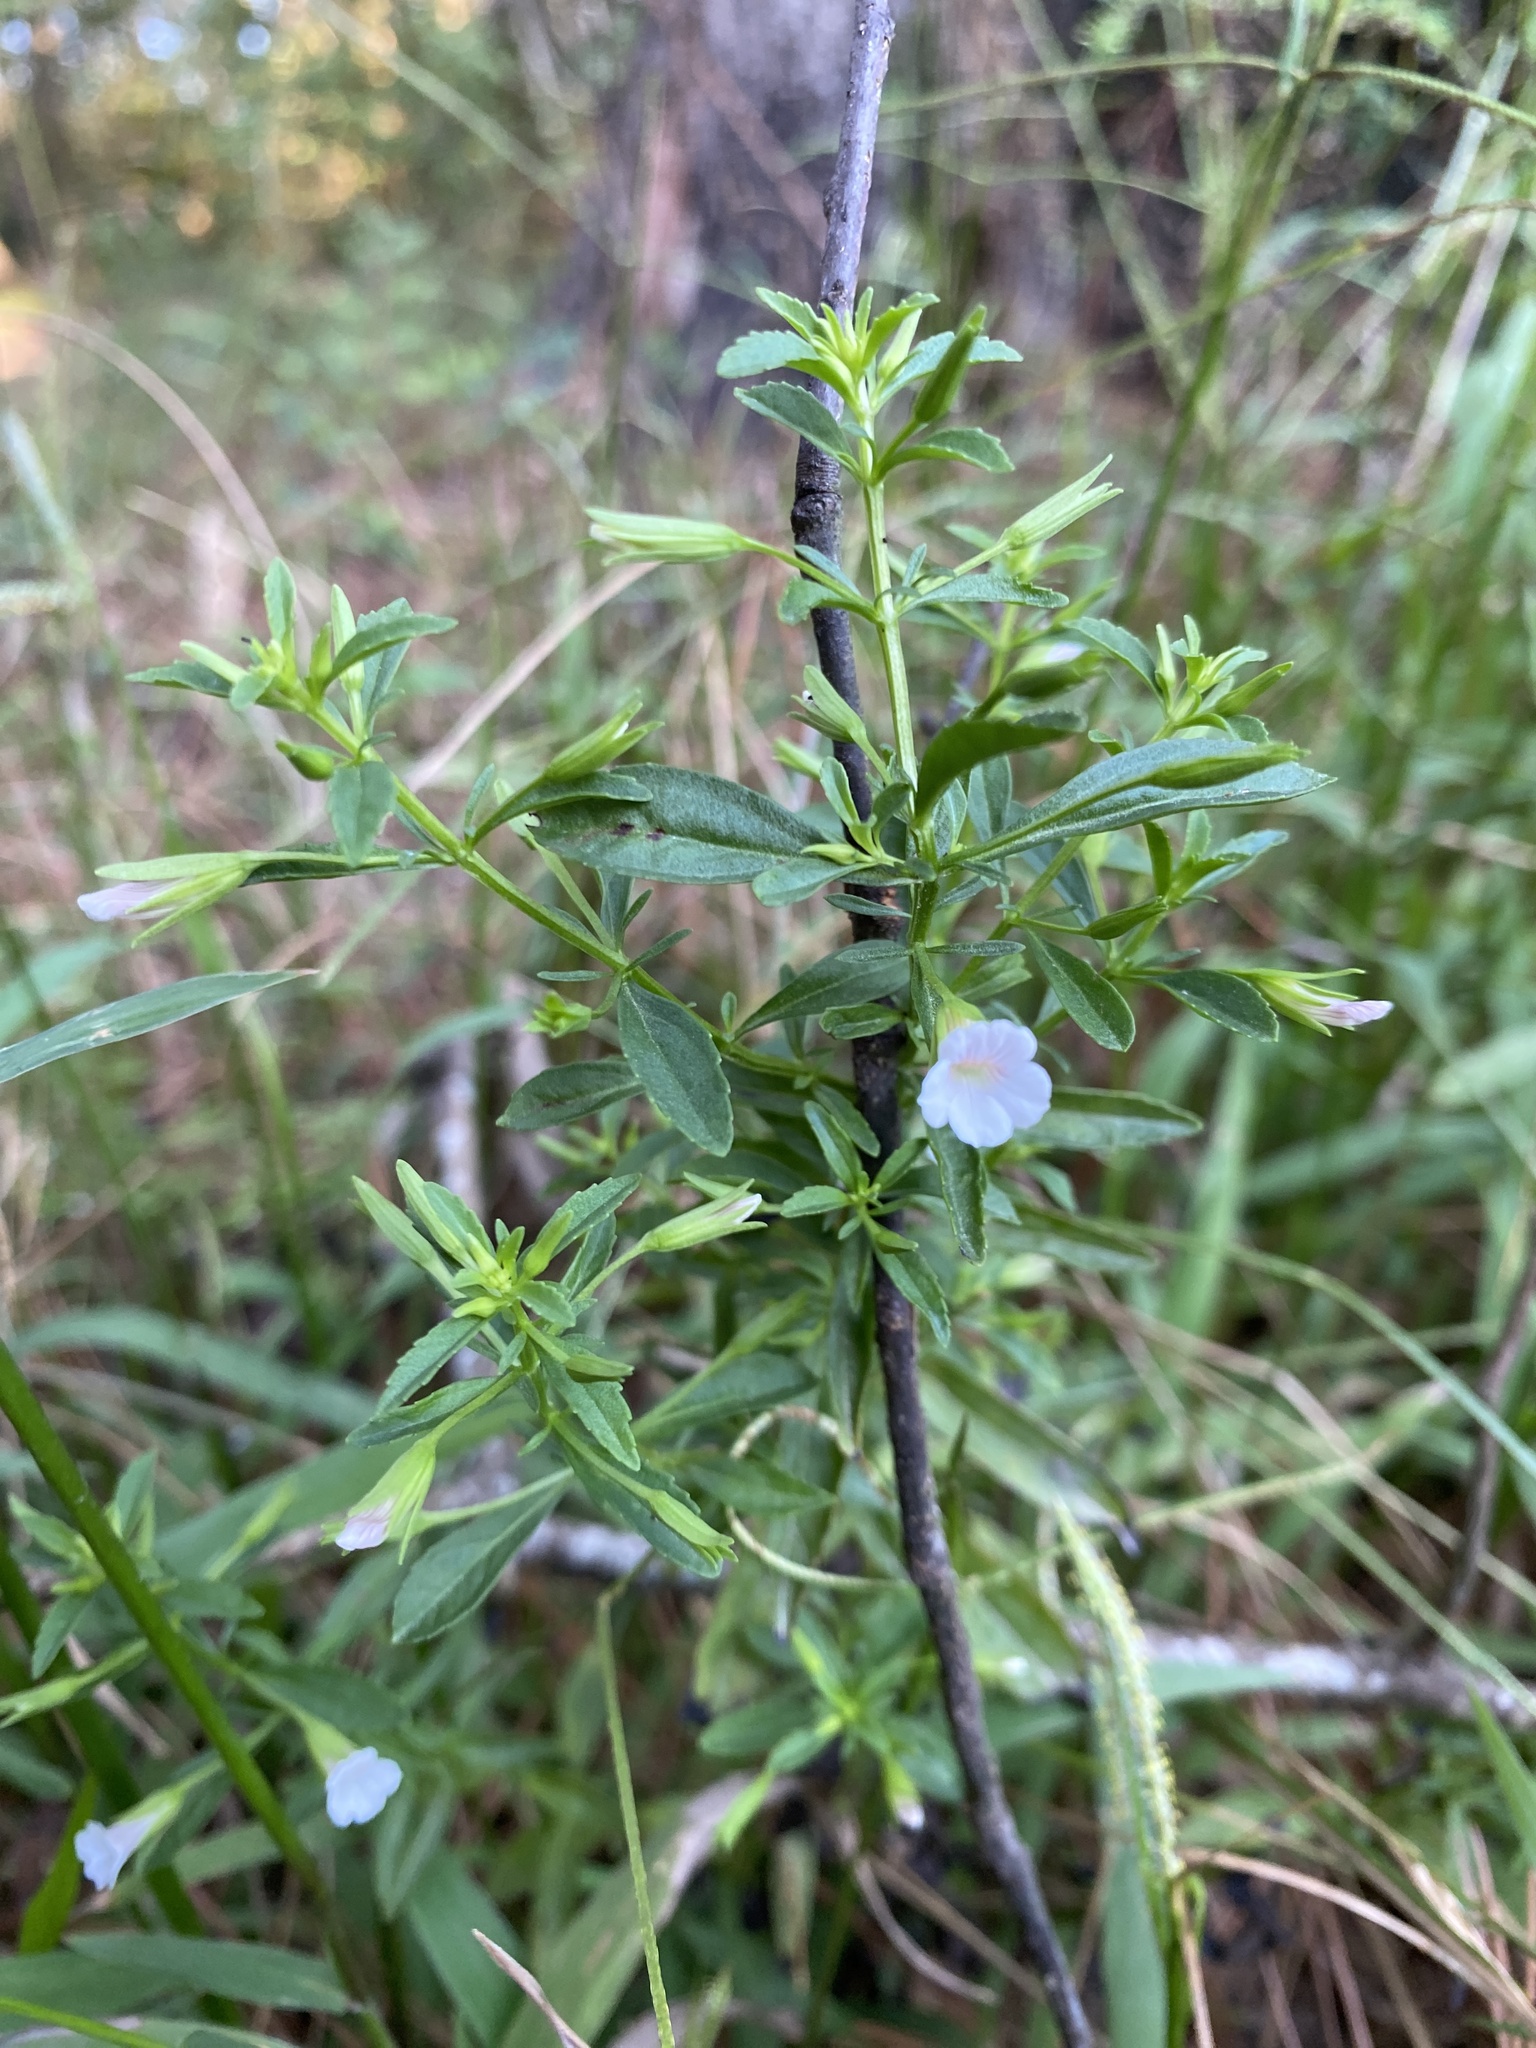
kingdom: Plantae
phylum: Tracheophyta
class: Magnoliopsida
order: Lamiales
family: Plantaginaceae
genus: Mecardonia
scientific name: Mecardonia acuminata
